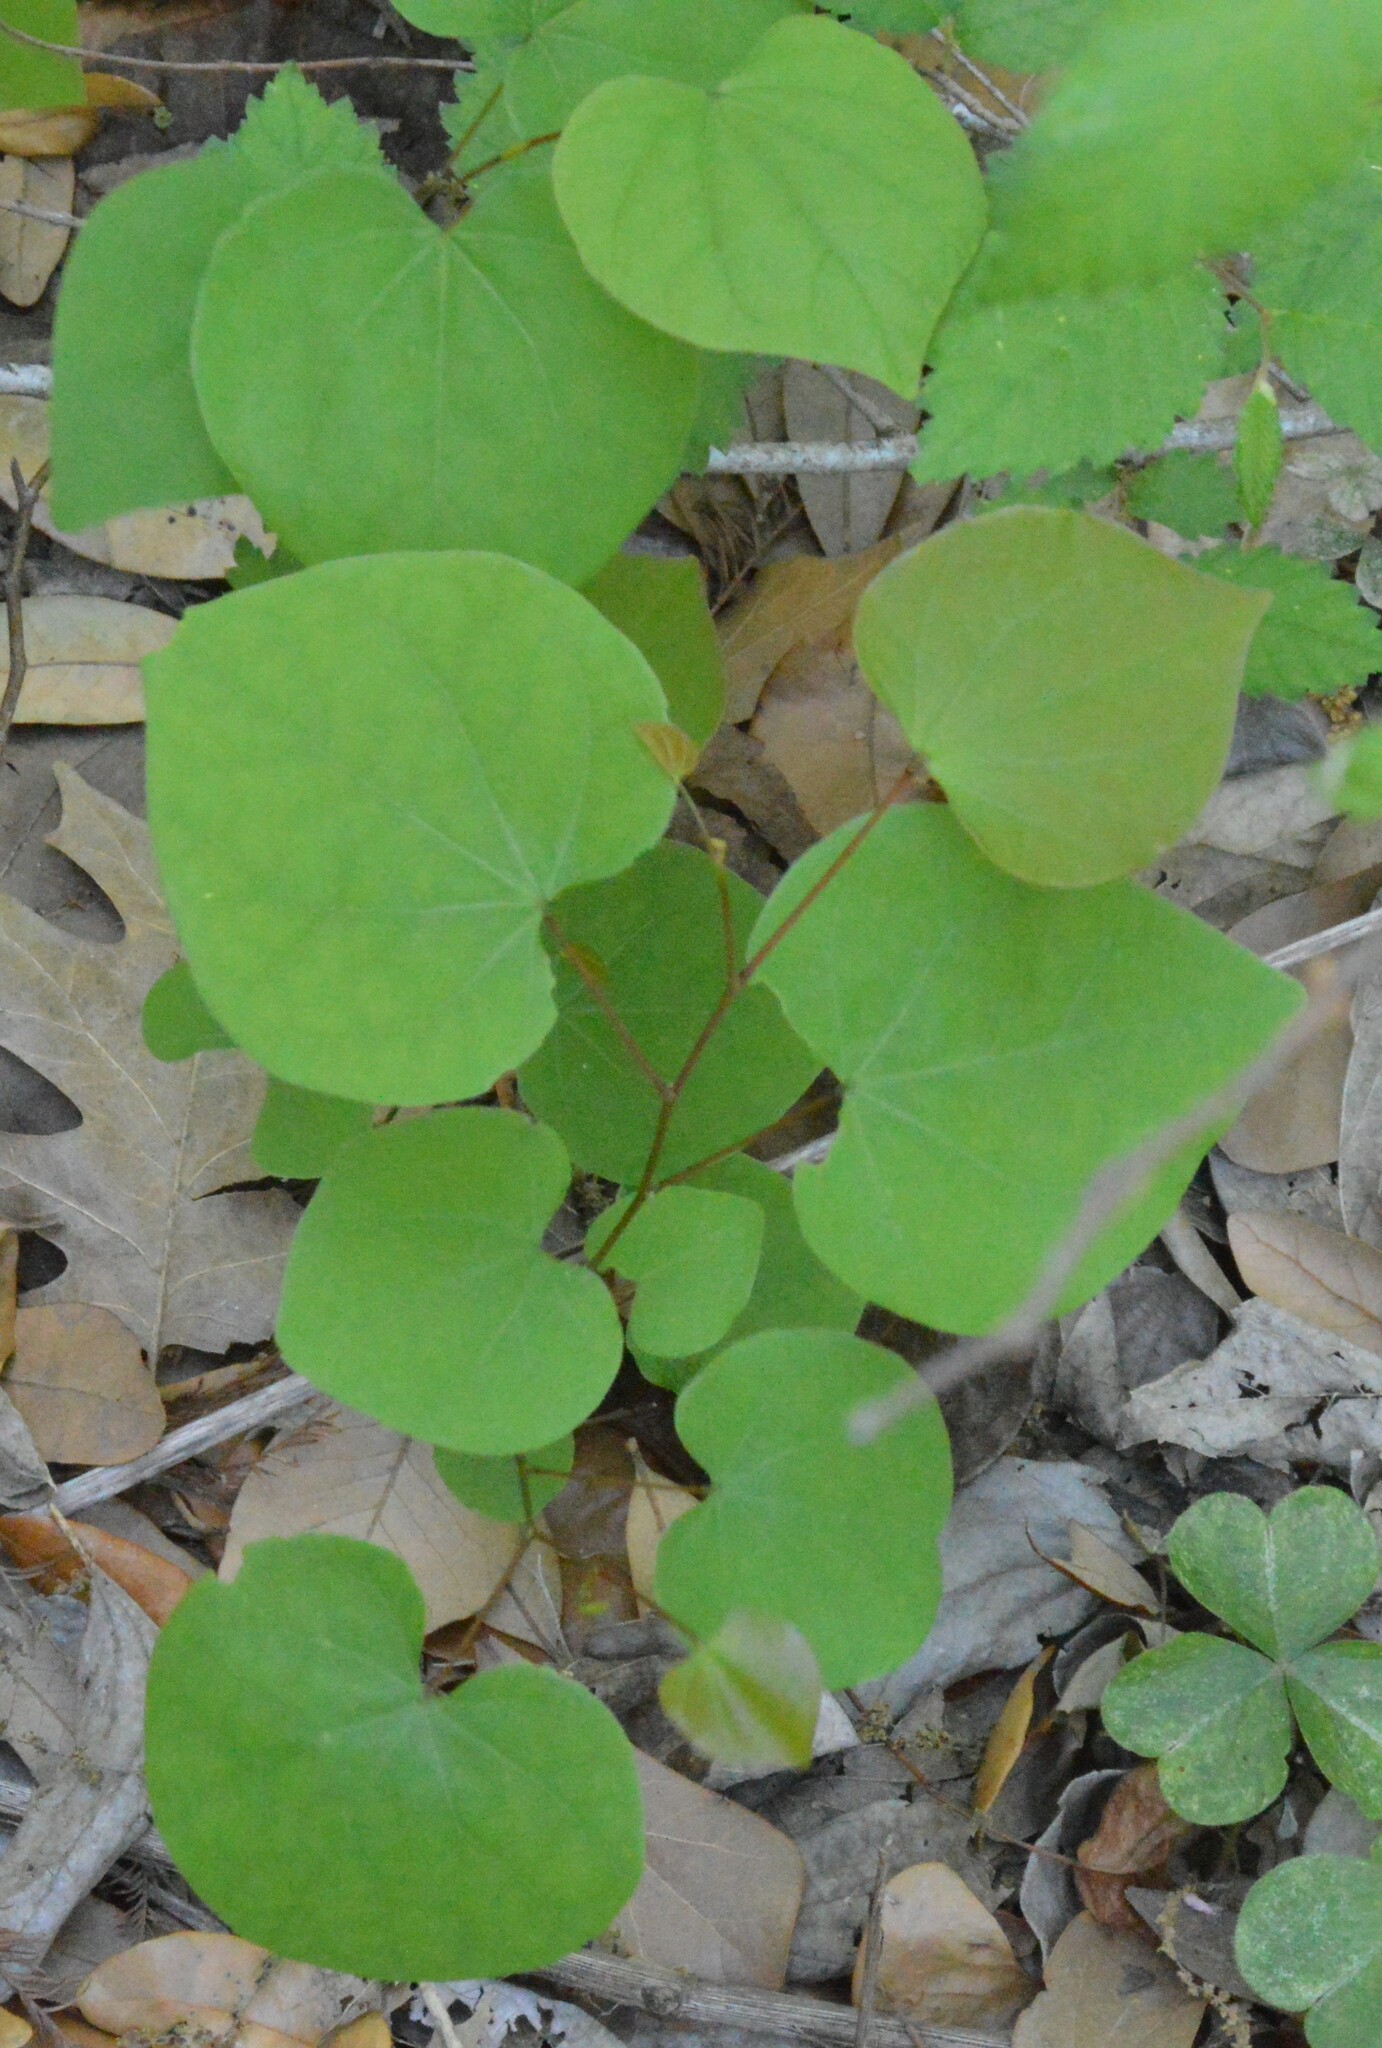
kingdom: Plantae
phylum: Tracheophyta
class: Magnoliopsida
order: Fabales
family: Fabaceae
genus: Cercis
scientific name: Cercis canadensis
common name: Eastern redbud
